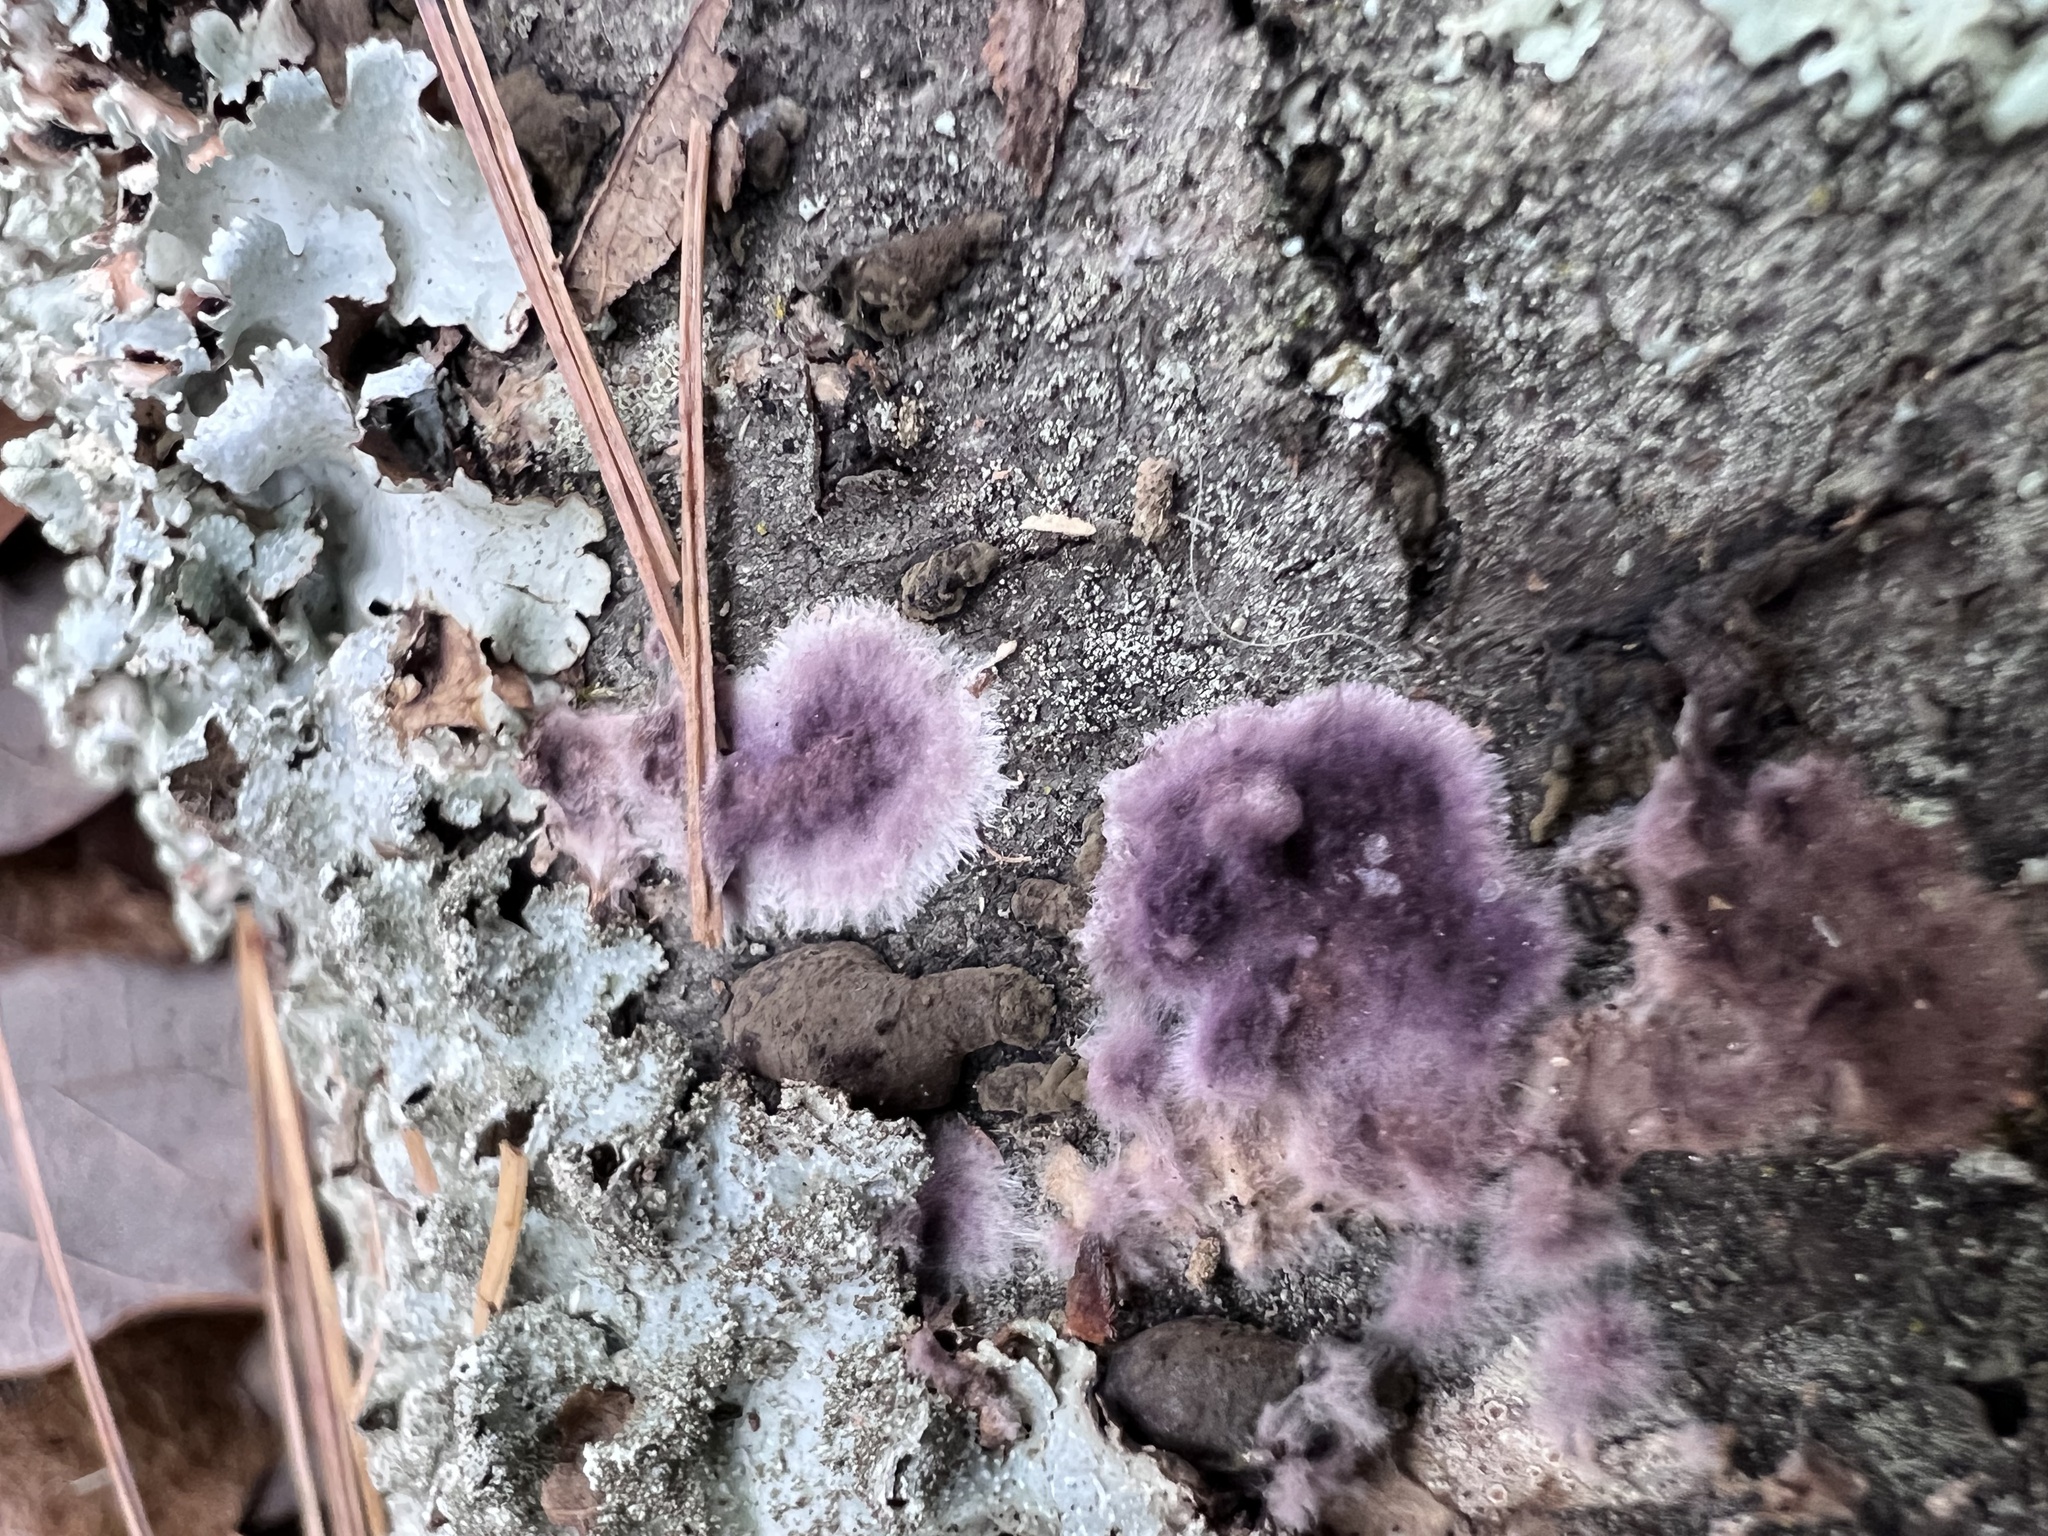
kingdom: Fungi
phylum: Basidiomycota
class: Agaricomycetes
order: Polyporales
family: Phanerochaetaceae
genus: Phlebiopsis
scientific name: Phlebiopsis crassa
